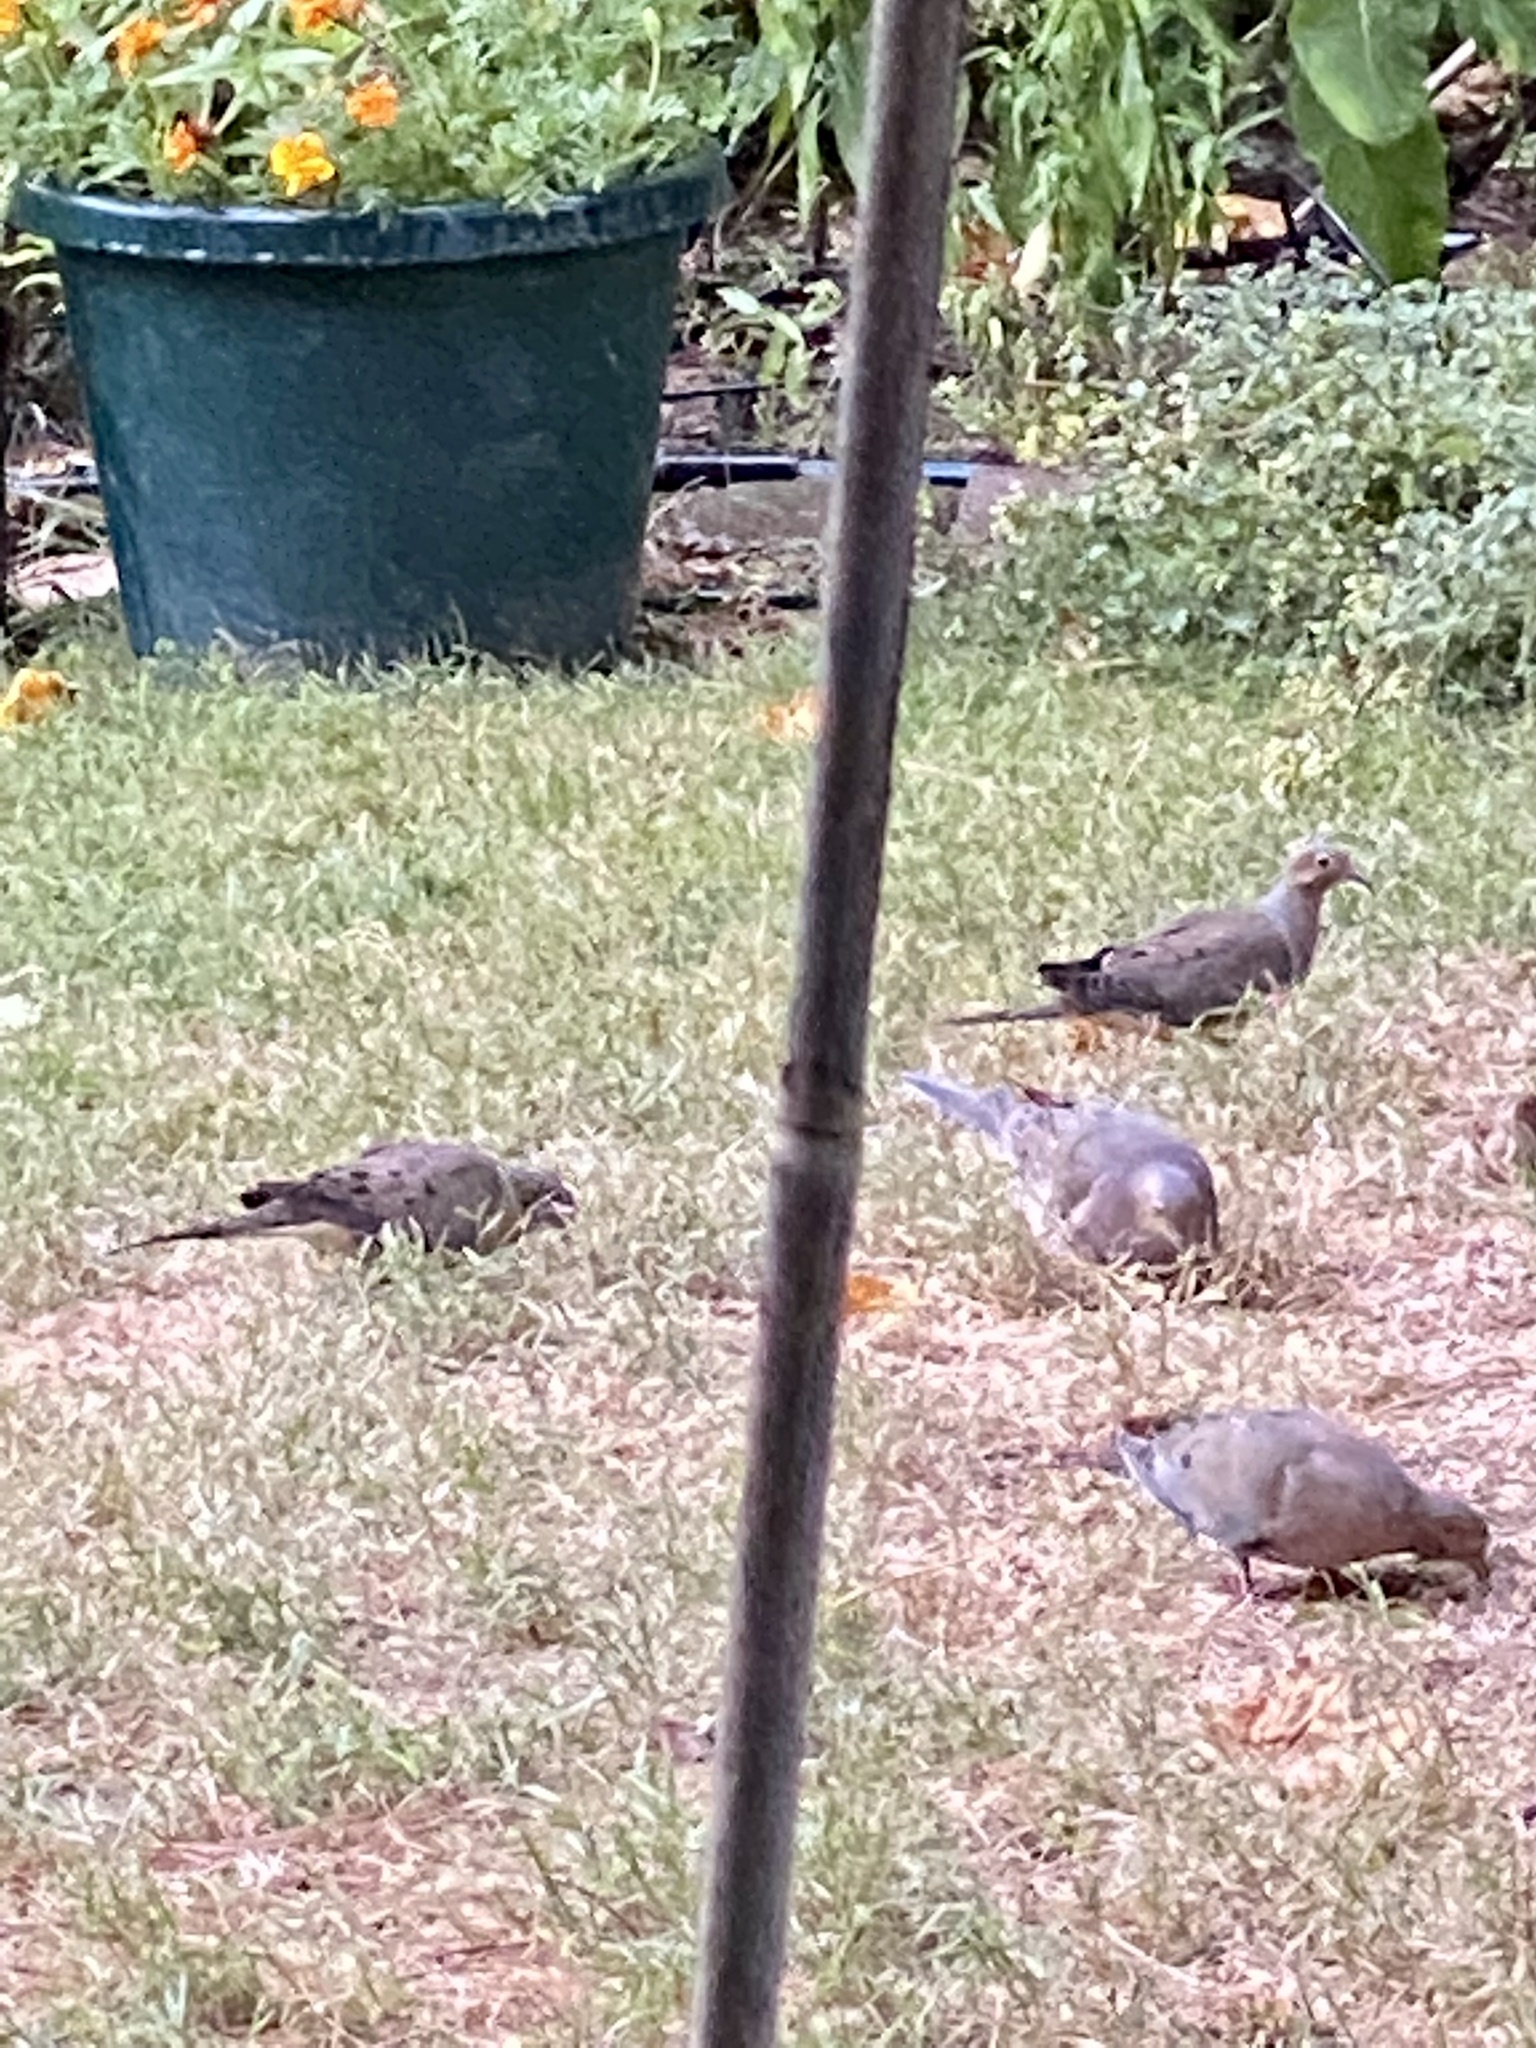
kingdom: Animalia
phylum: Chordata
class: Aves
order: Columbiformes
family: Columbidae
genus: Zenaida
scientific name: Zenaida macroura
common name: Mourning dove
